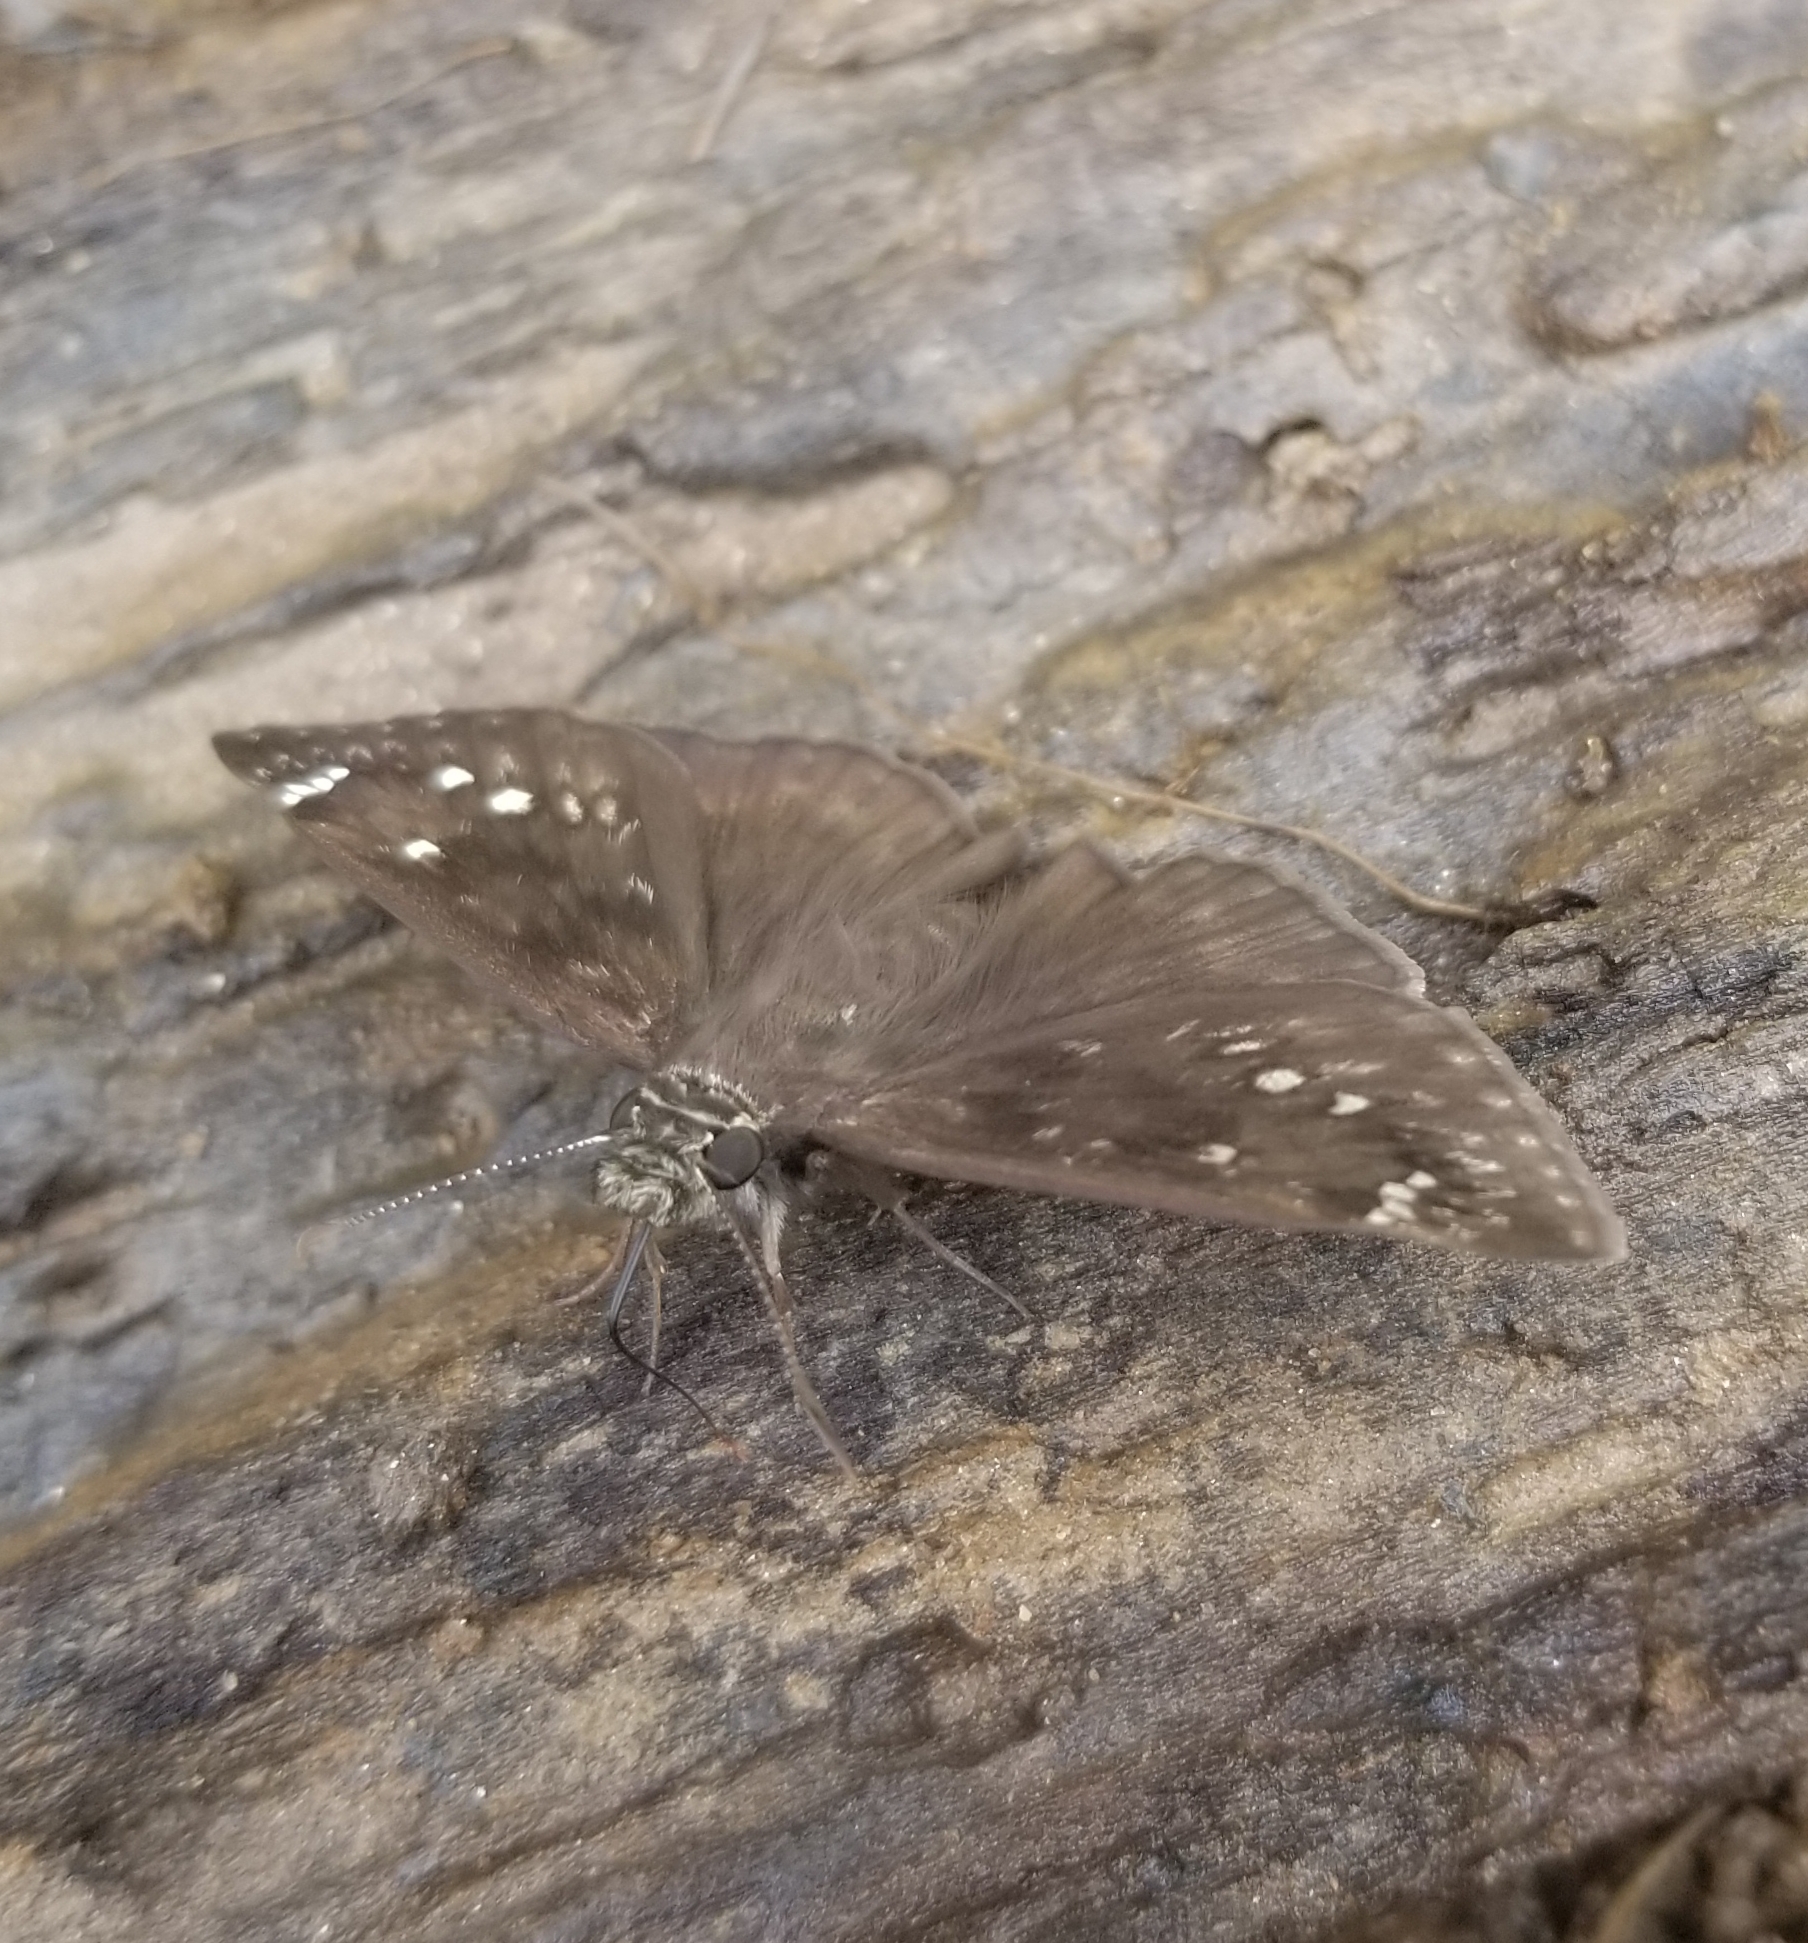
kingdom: Animalia
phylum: Arthropoda
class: Insecta
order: Lepidoptera
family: Hesperiidae
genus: Erynnis
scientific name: Erynnis horatius
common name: Horace's duskywing
